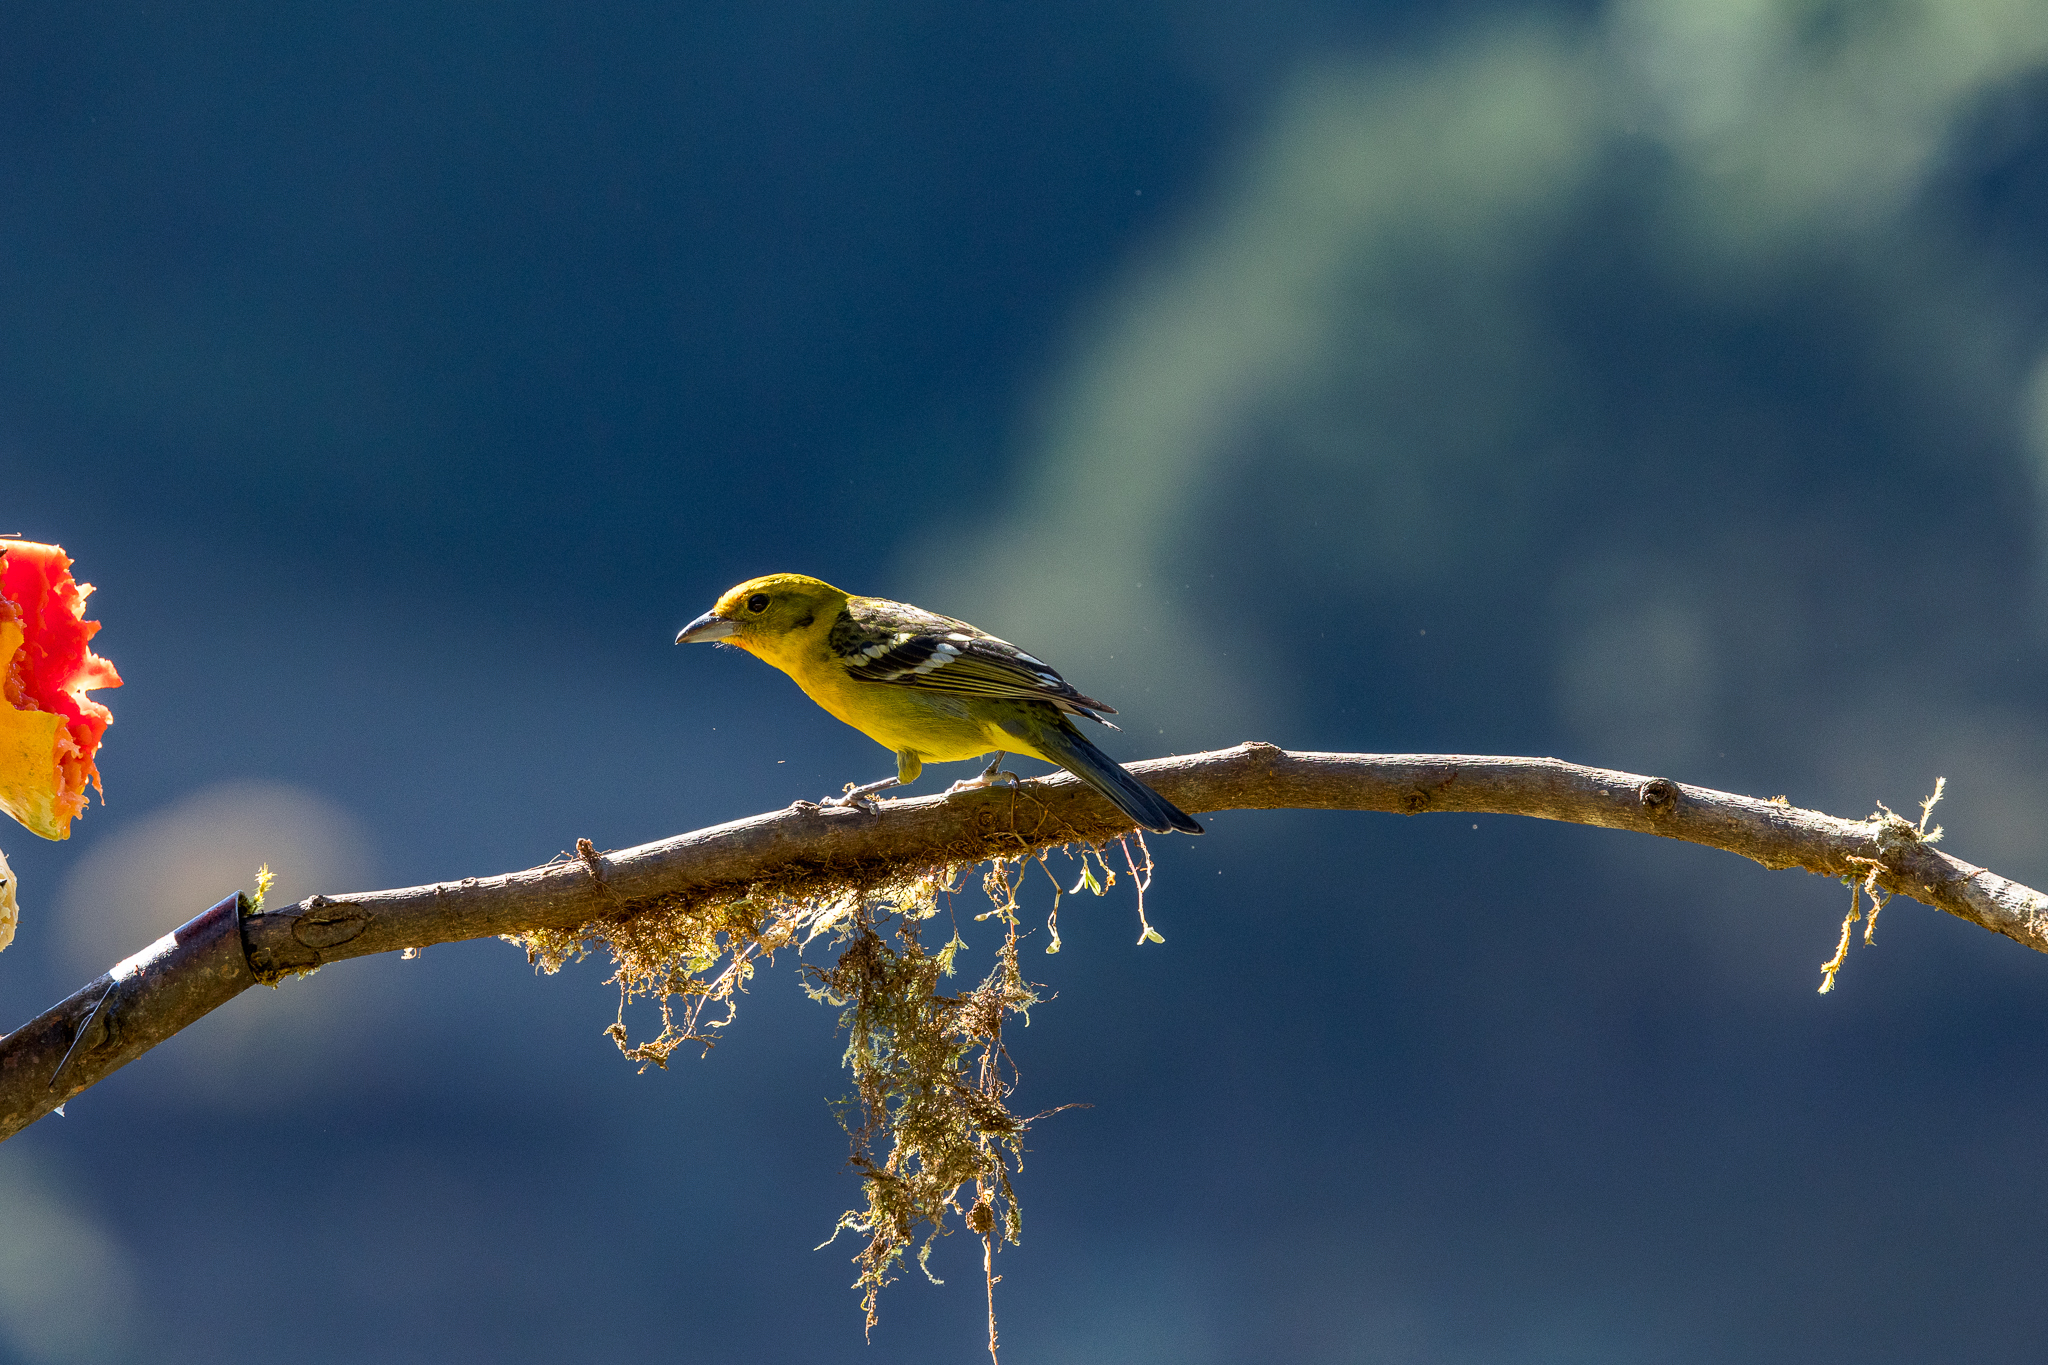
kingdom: Animalia
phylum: Chordata
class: Aves
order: Passeriformes
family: Cardinalidae
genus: Piranga
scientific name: Piranga bidentata
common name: Flame-colored tanager
